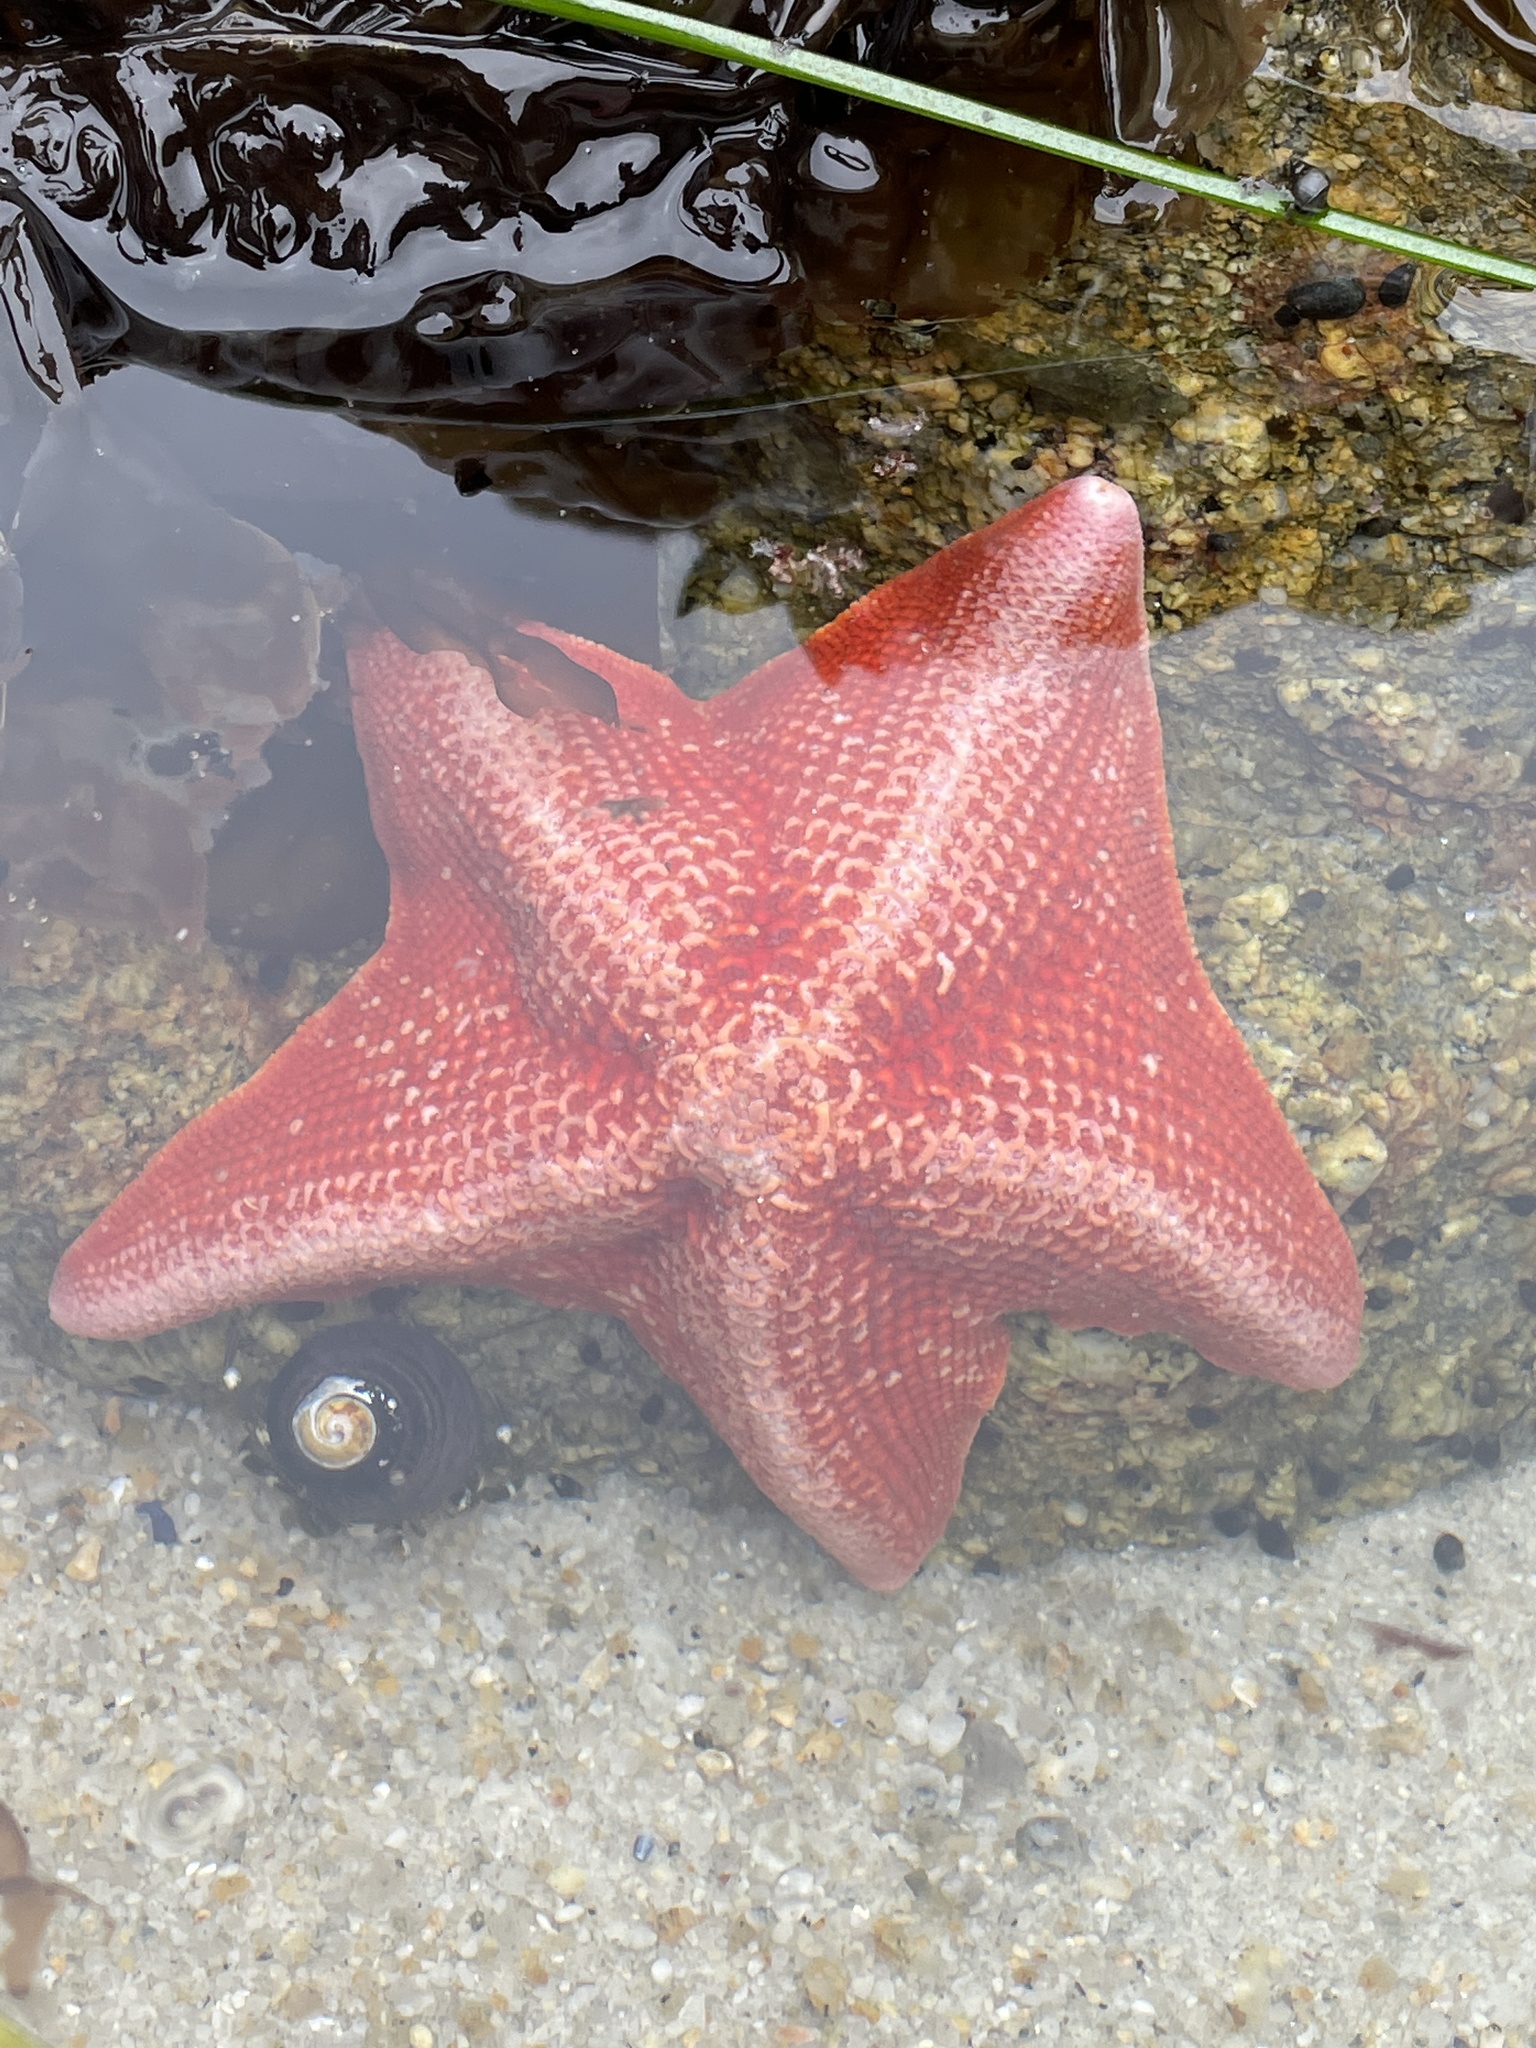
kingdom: Animalia
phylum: Echinodermata
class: Asteroidea
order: Valvatida
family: Asterinidae
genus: Patiria
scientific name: Patiria miniata
